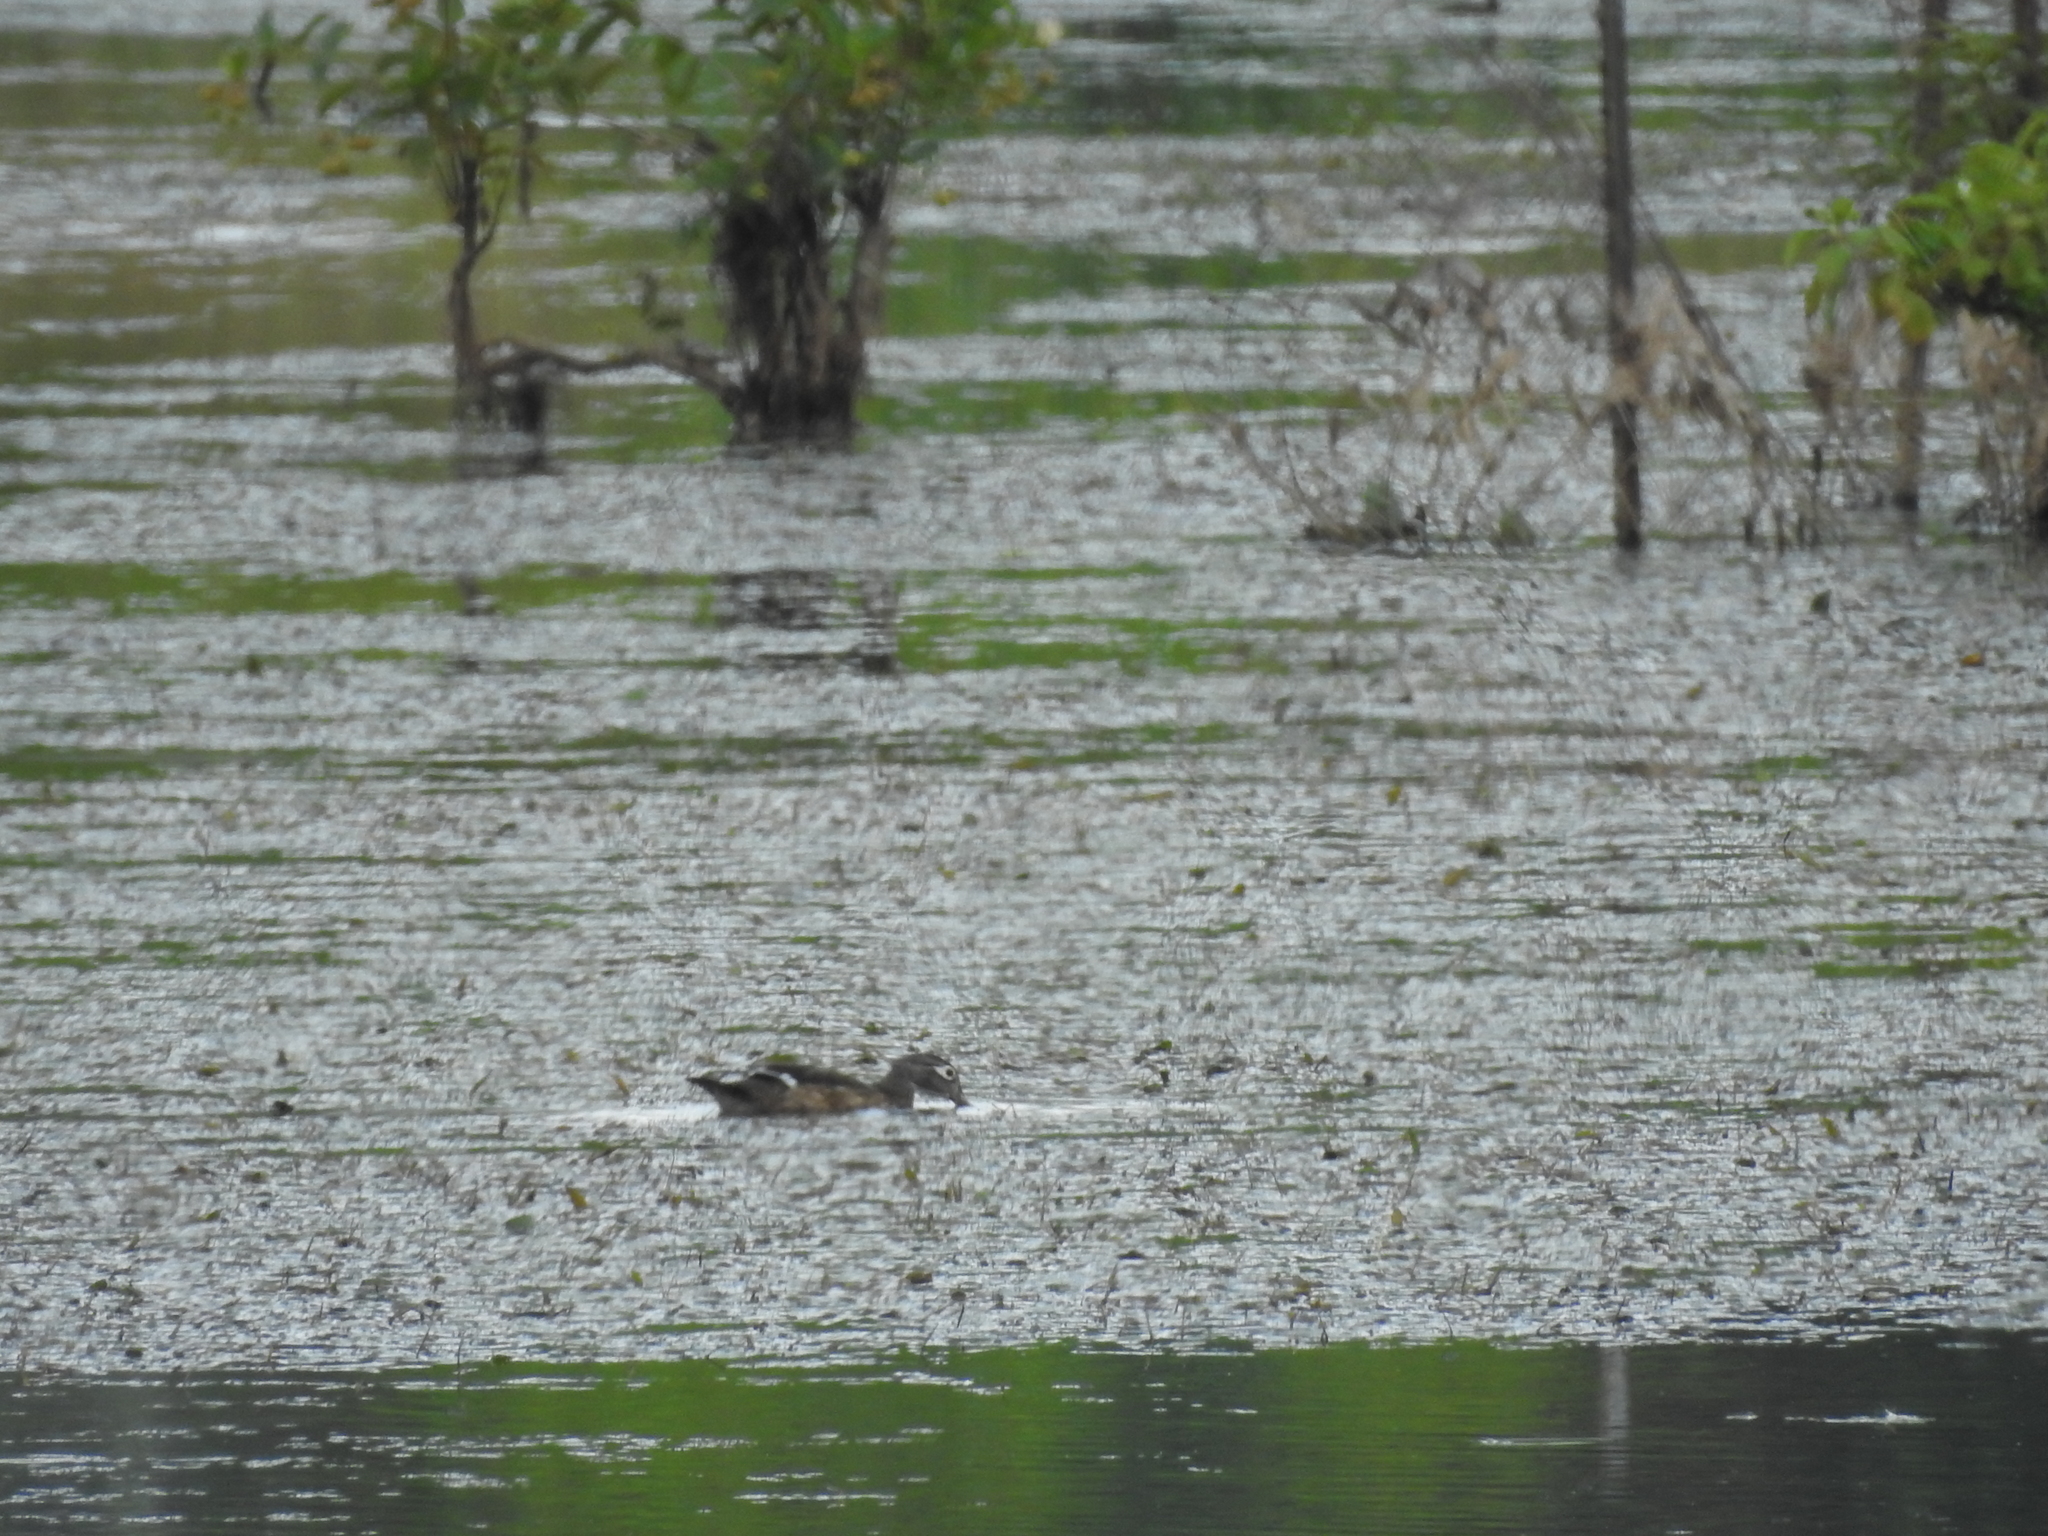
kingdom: Animalia
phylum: Chordata
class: Aves
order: Anseriformes
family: Anatidae
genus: Aix
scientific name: Aix sponsa
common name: Wood duck
